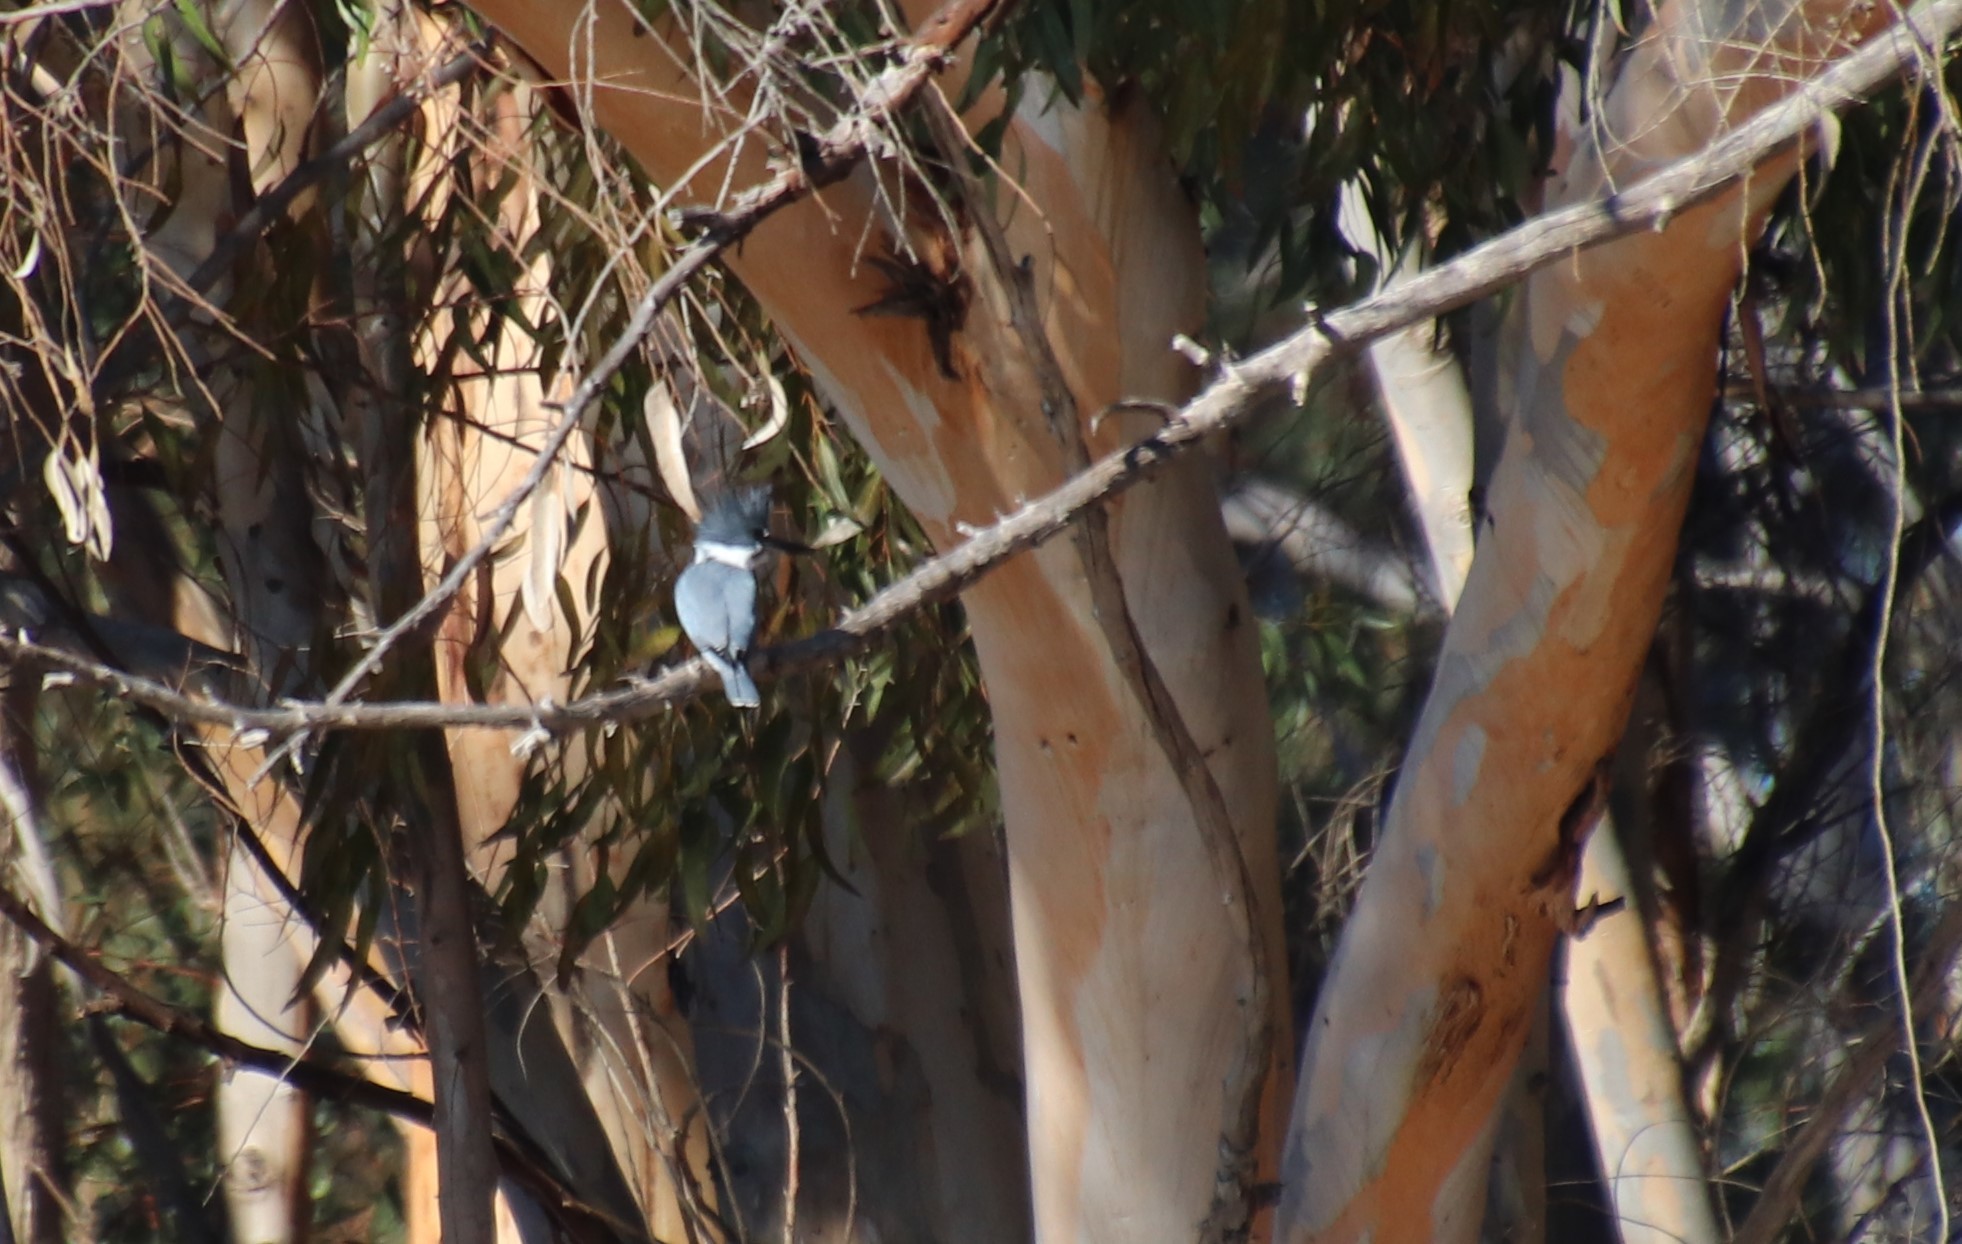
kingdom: Animalia
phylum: Chordata
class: Aves
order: Coraciiformes
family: Alcedinidae
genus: Megaceryle
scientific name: Megaceryle alcyon
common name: Belted kingfisher
